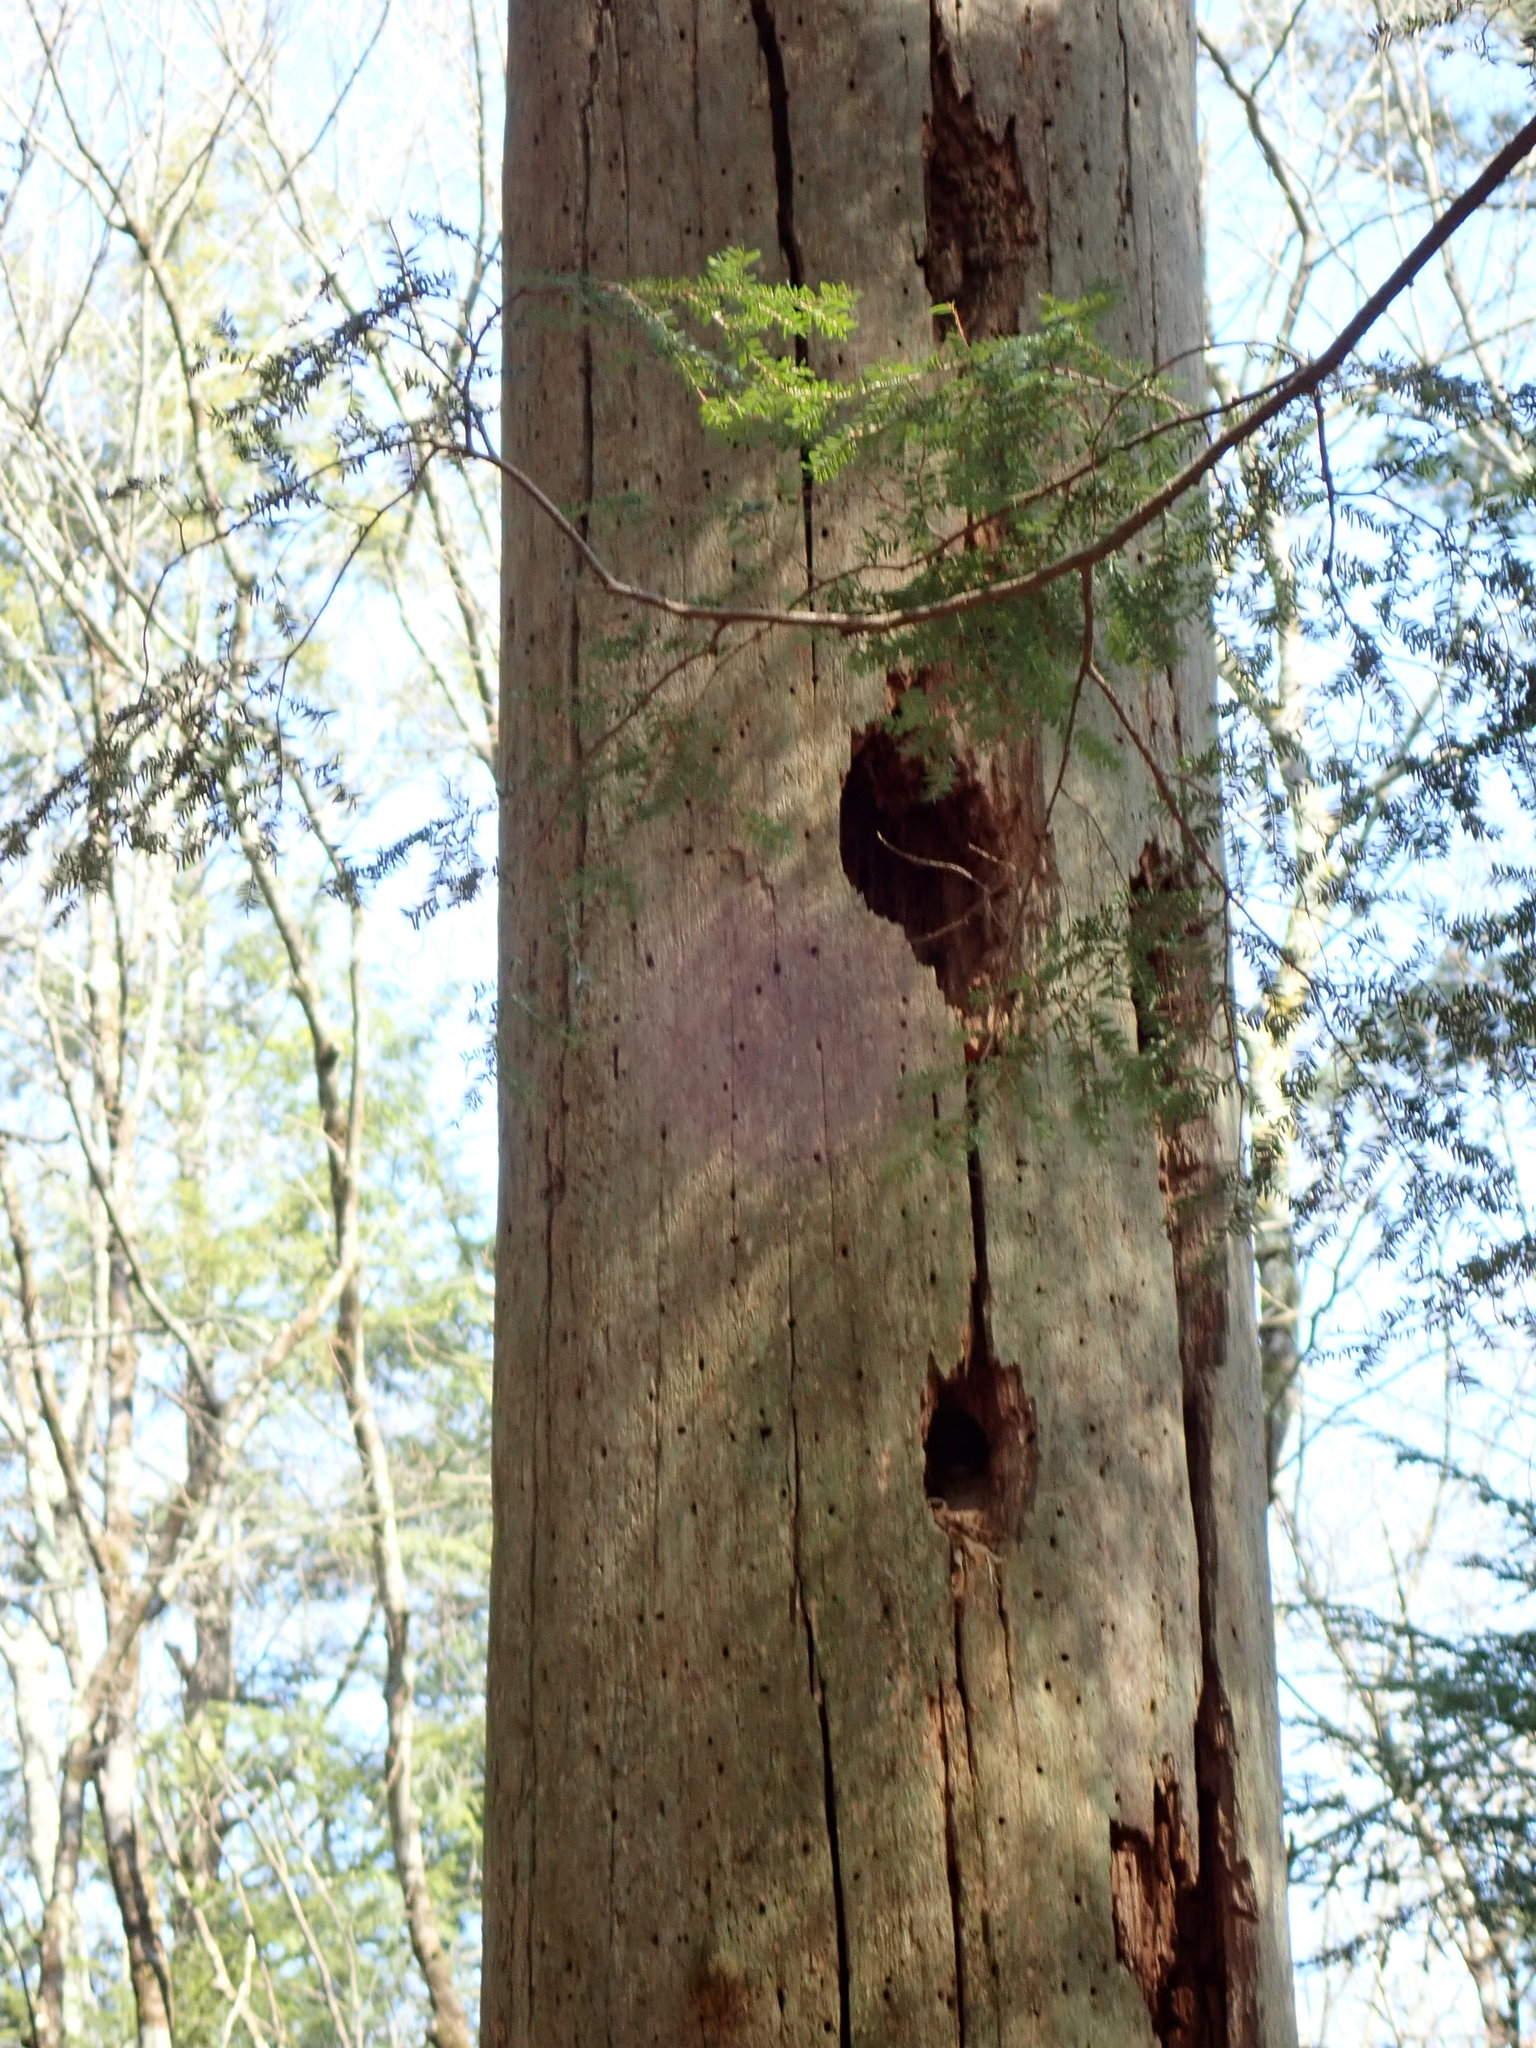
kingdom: Animalia
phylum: Chordata
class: Aves
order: Piciformes
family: Picidae
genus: Dryocopus
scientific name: Dryocopus pileatus
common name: Pileated woodpecker
